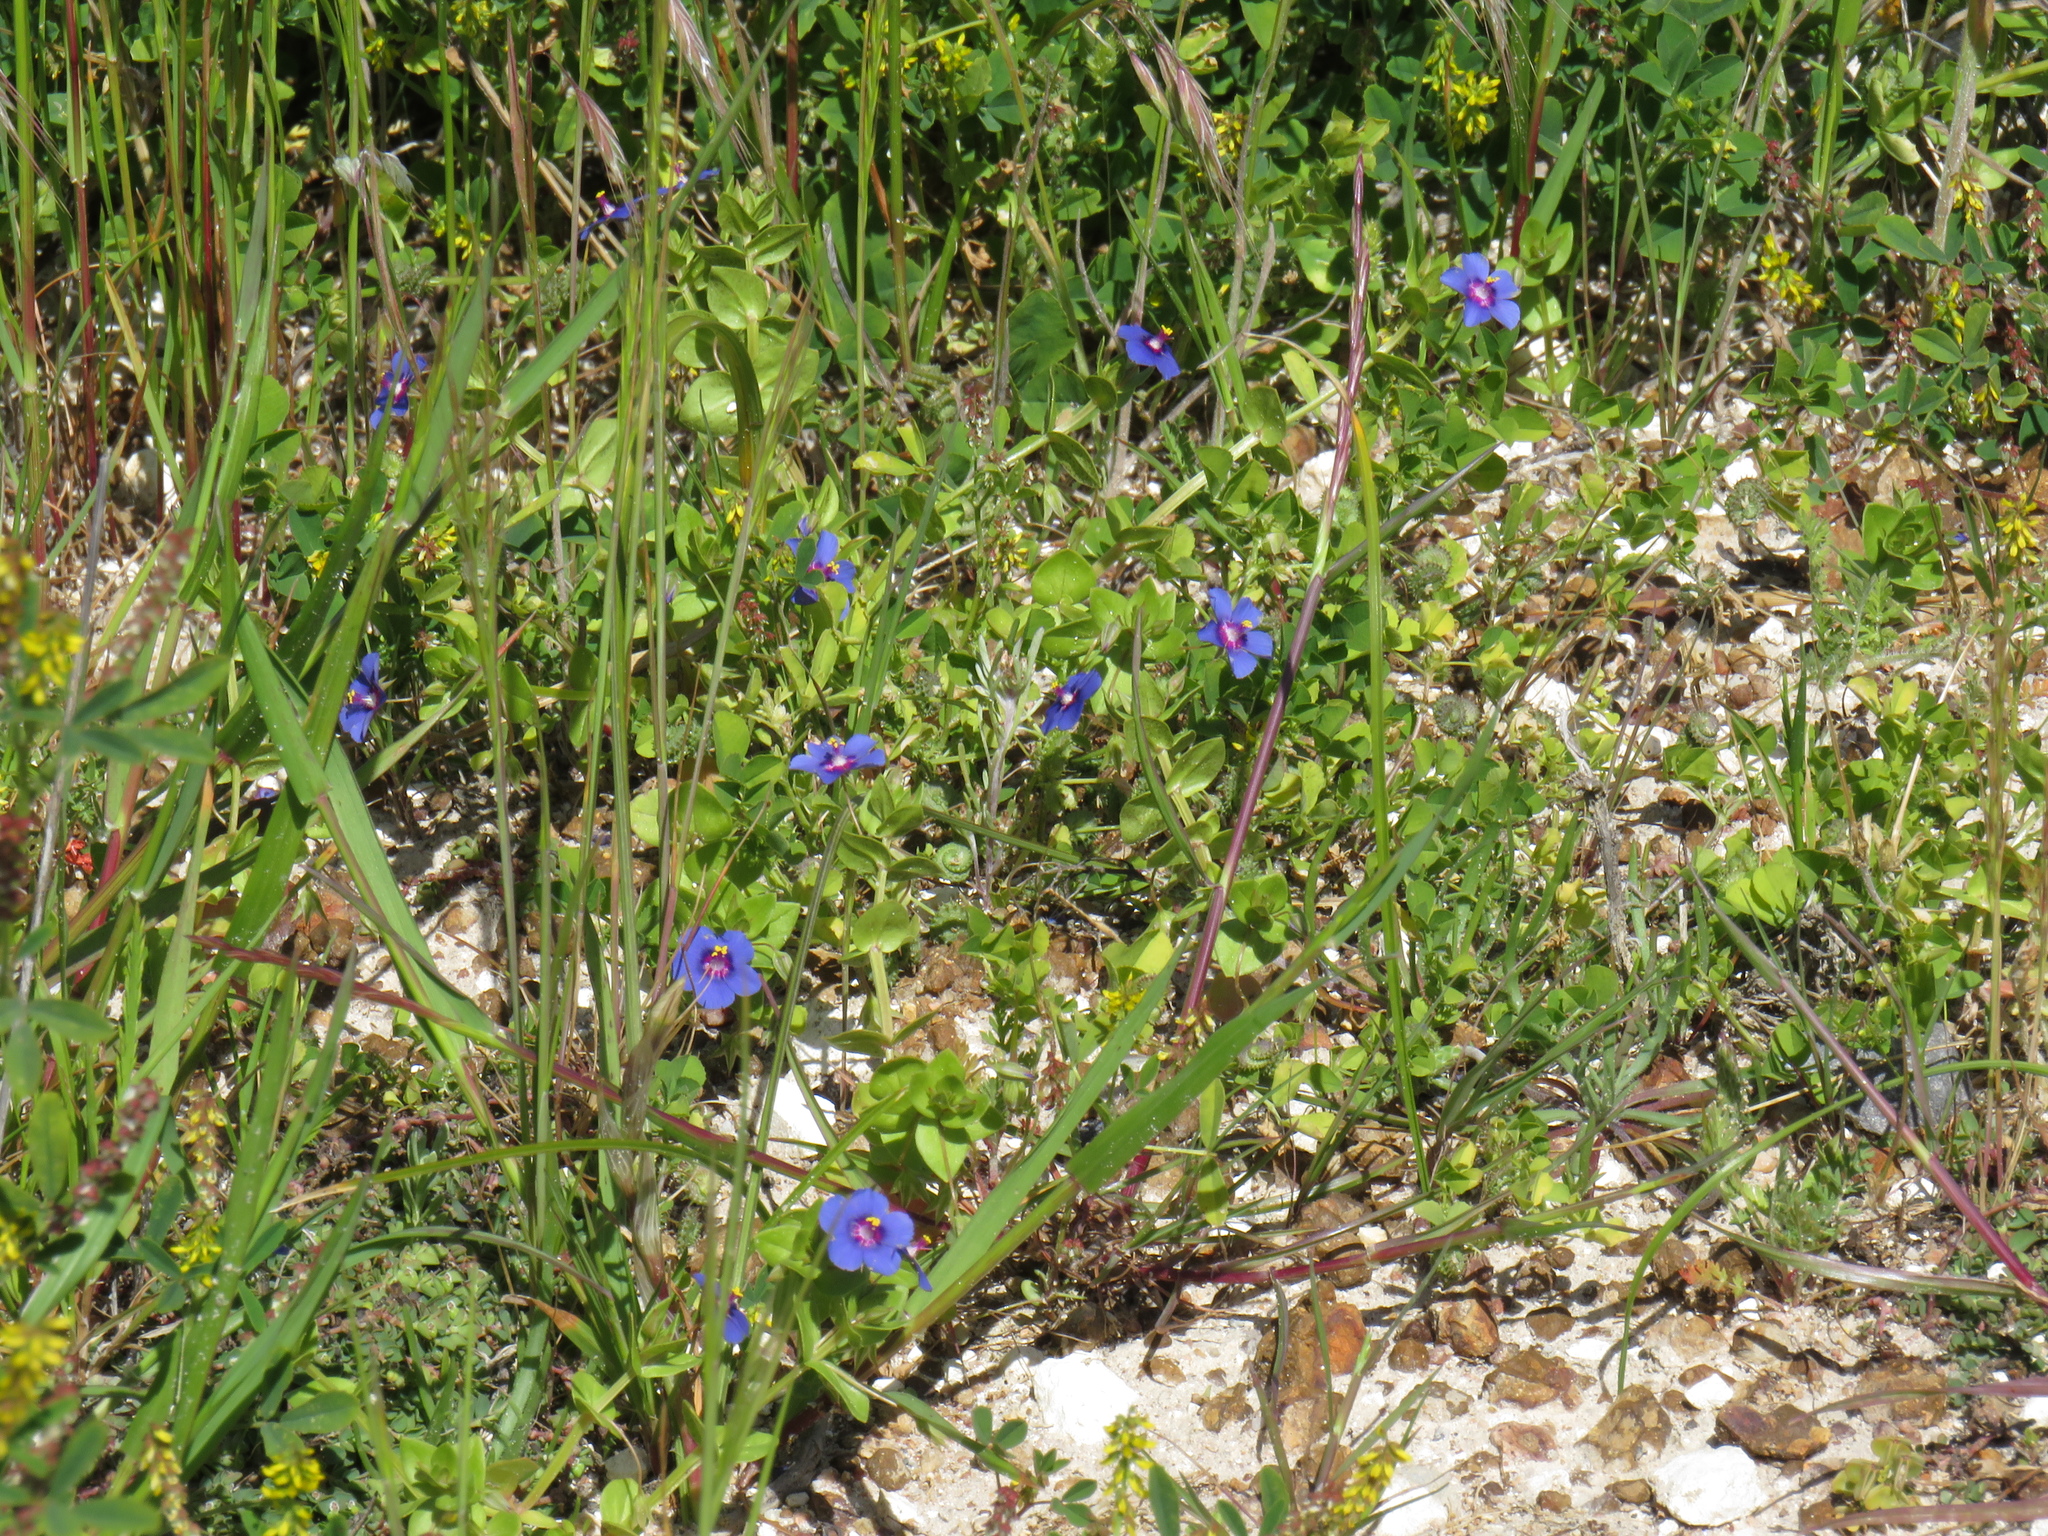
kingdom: Plantae
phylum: Tracheophyta
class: Magnoliopsida
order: Ericales
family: Primulaceae
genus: Lysimachia
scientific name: Lysimachia loeflingii
